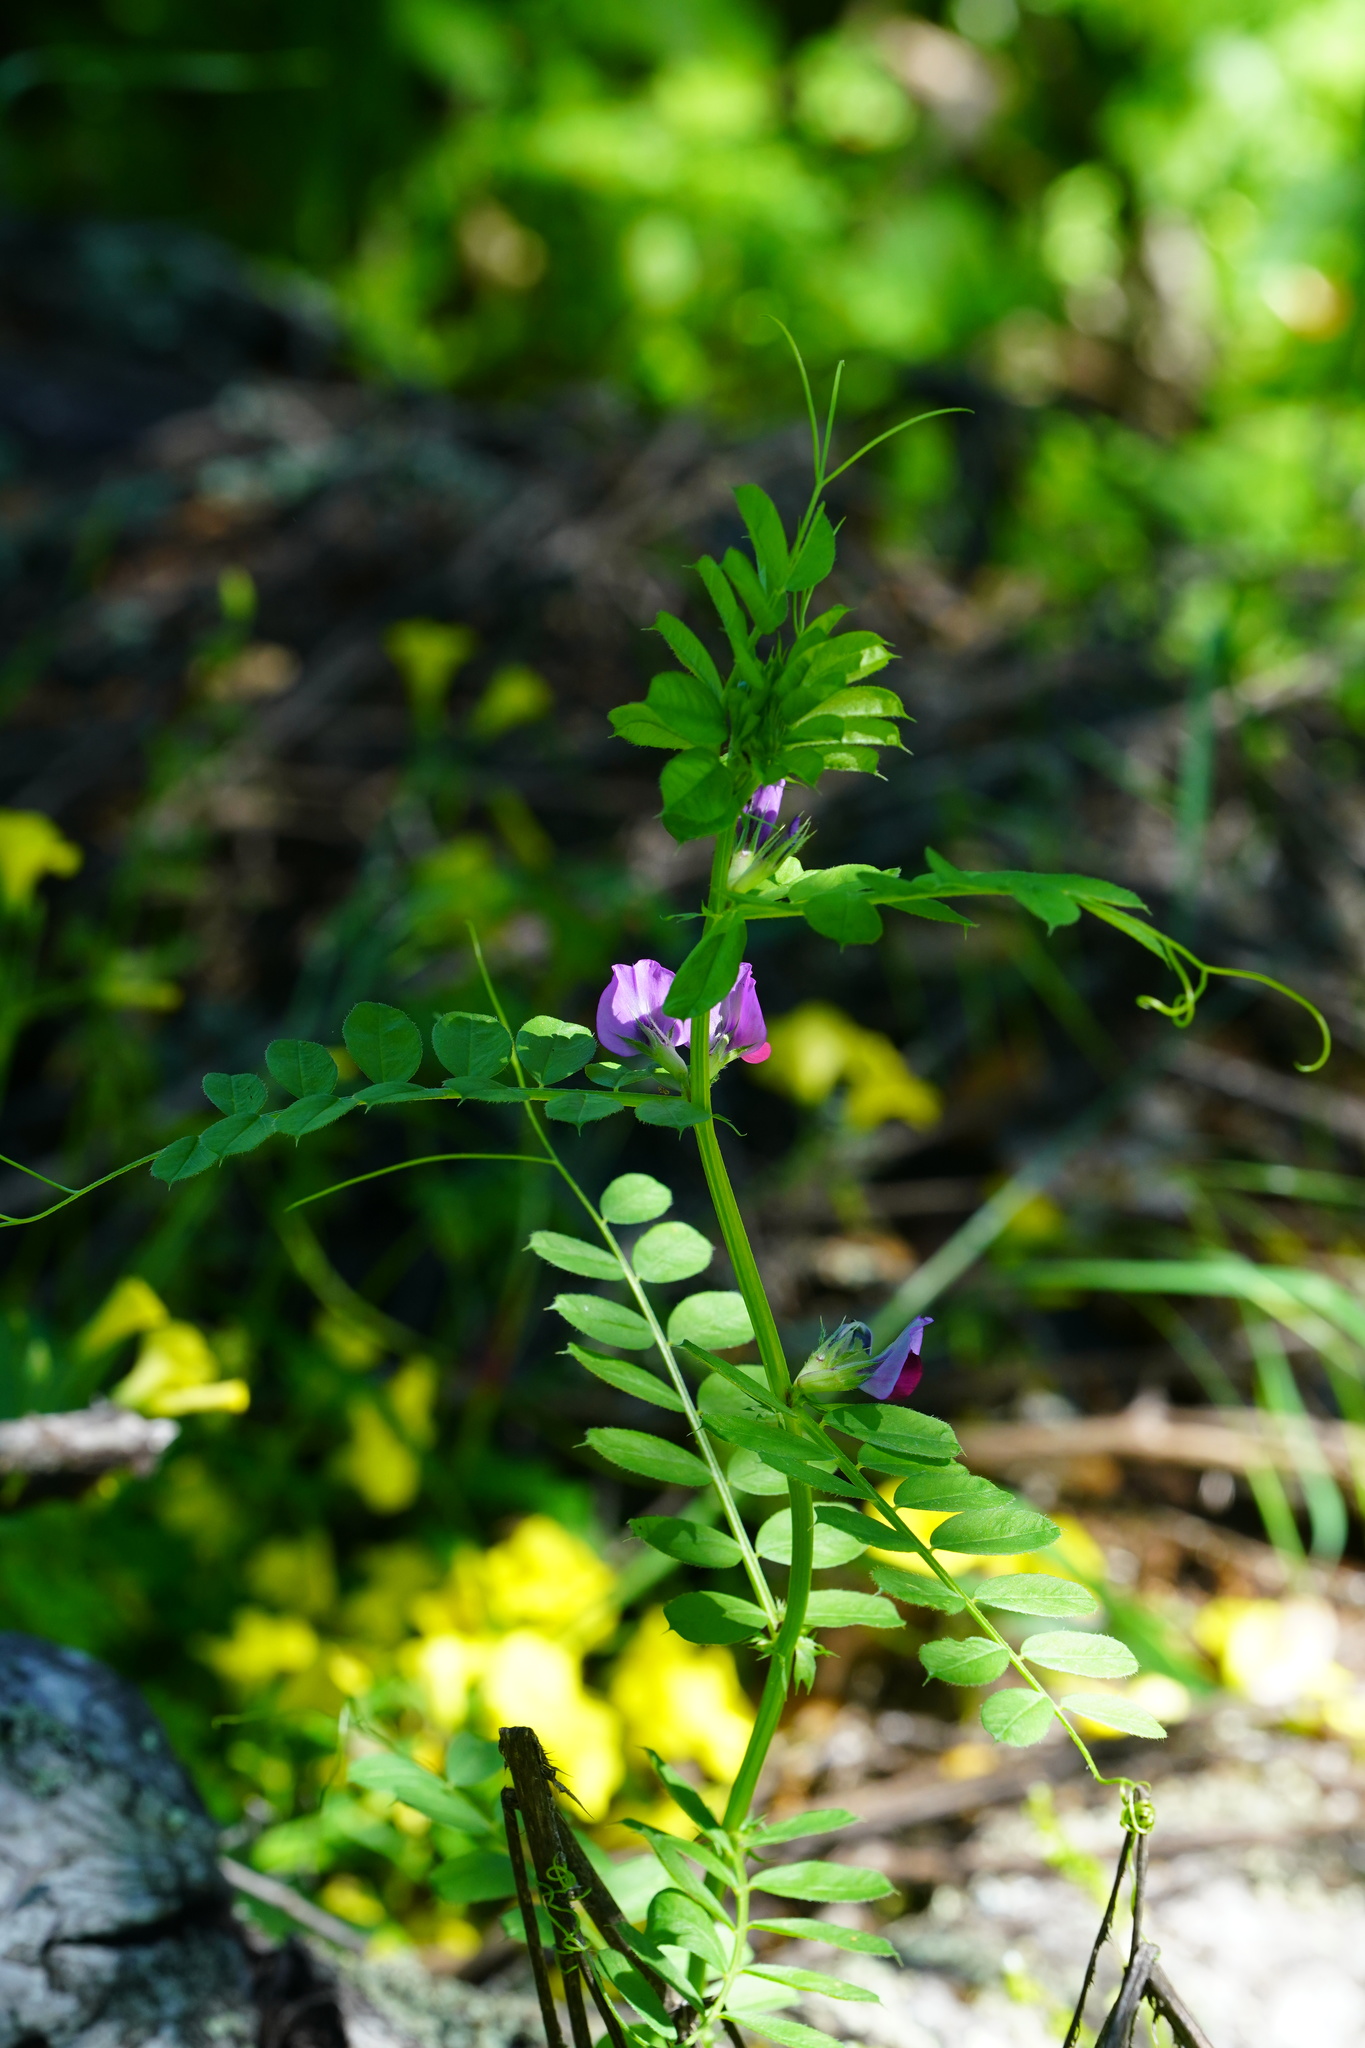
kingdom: Plantae
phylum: Tracheophyta
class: Magnoliopsida
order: Fabales
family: Fabaceae
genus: Vicia
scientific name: Vicia sativa
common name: Garden vetch
